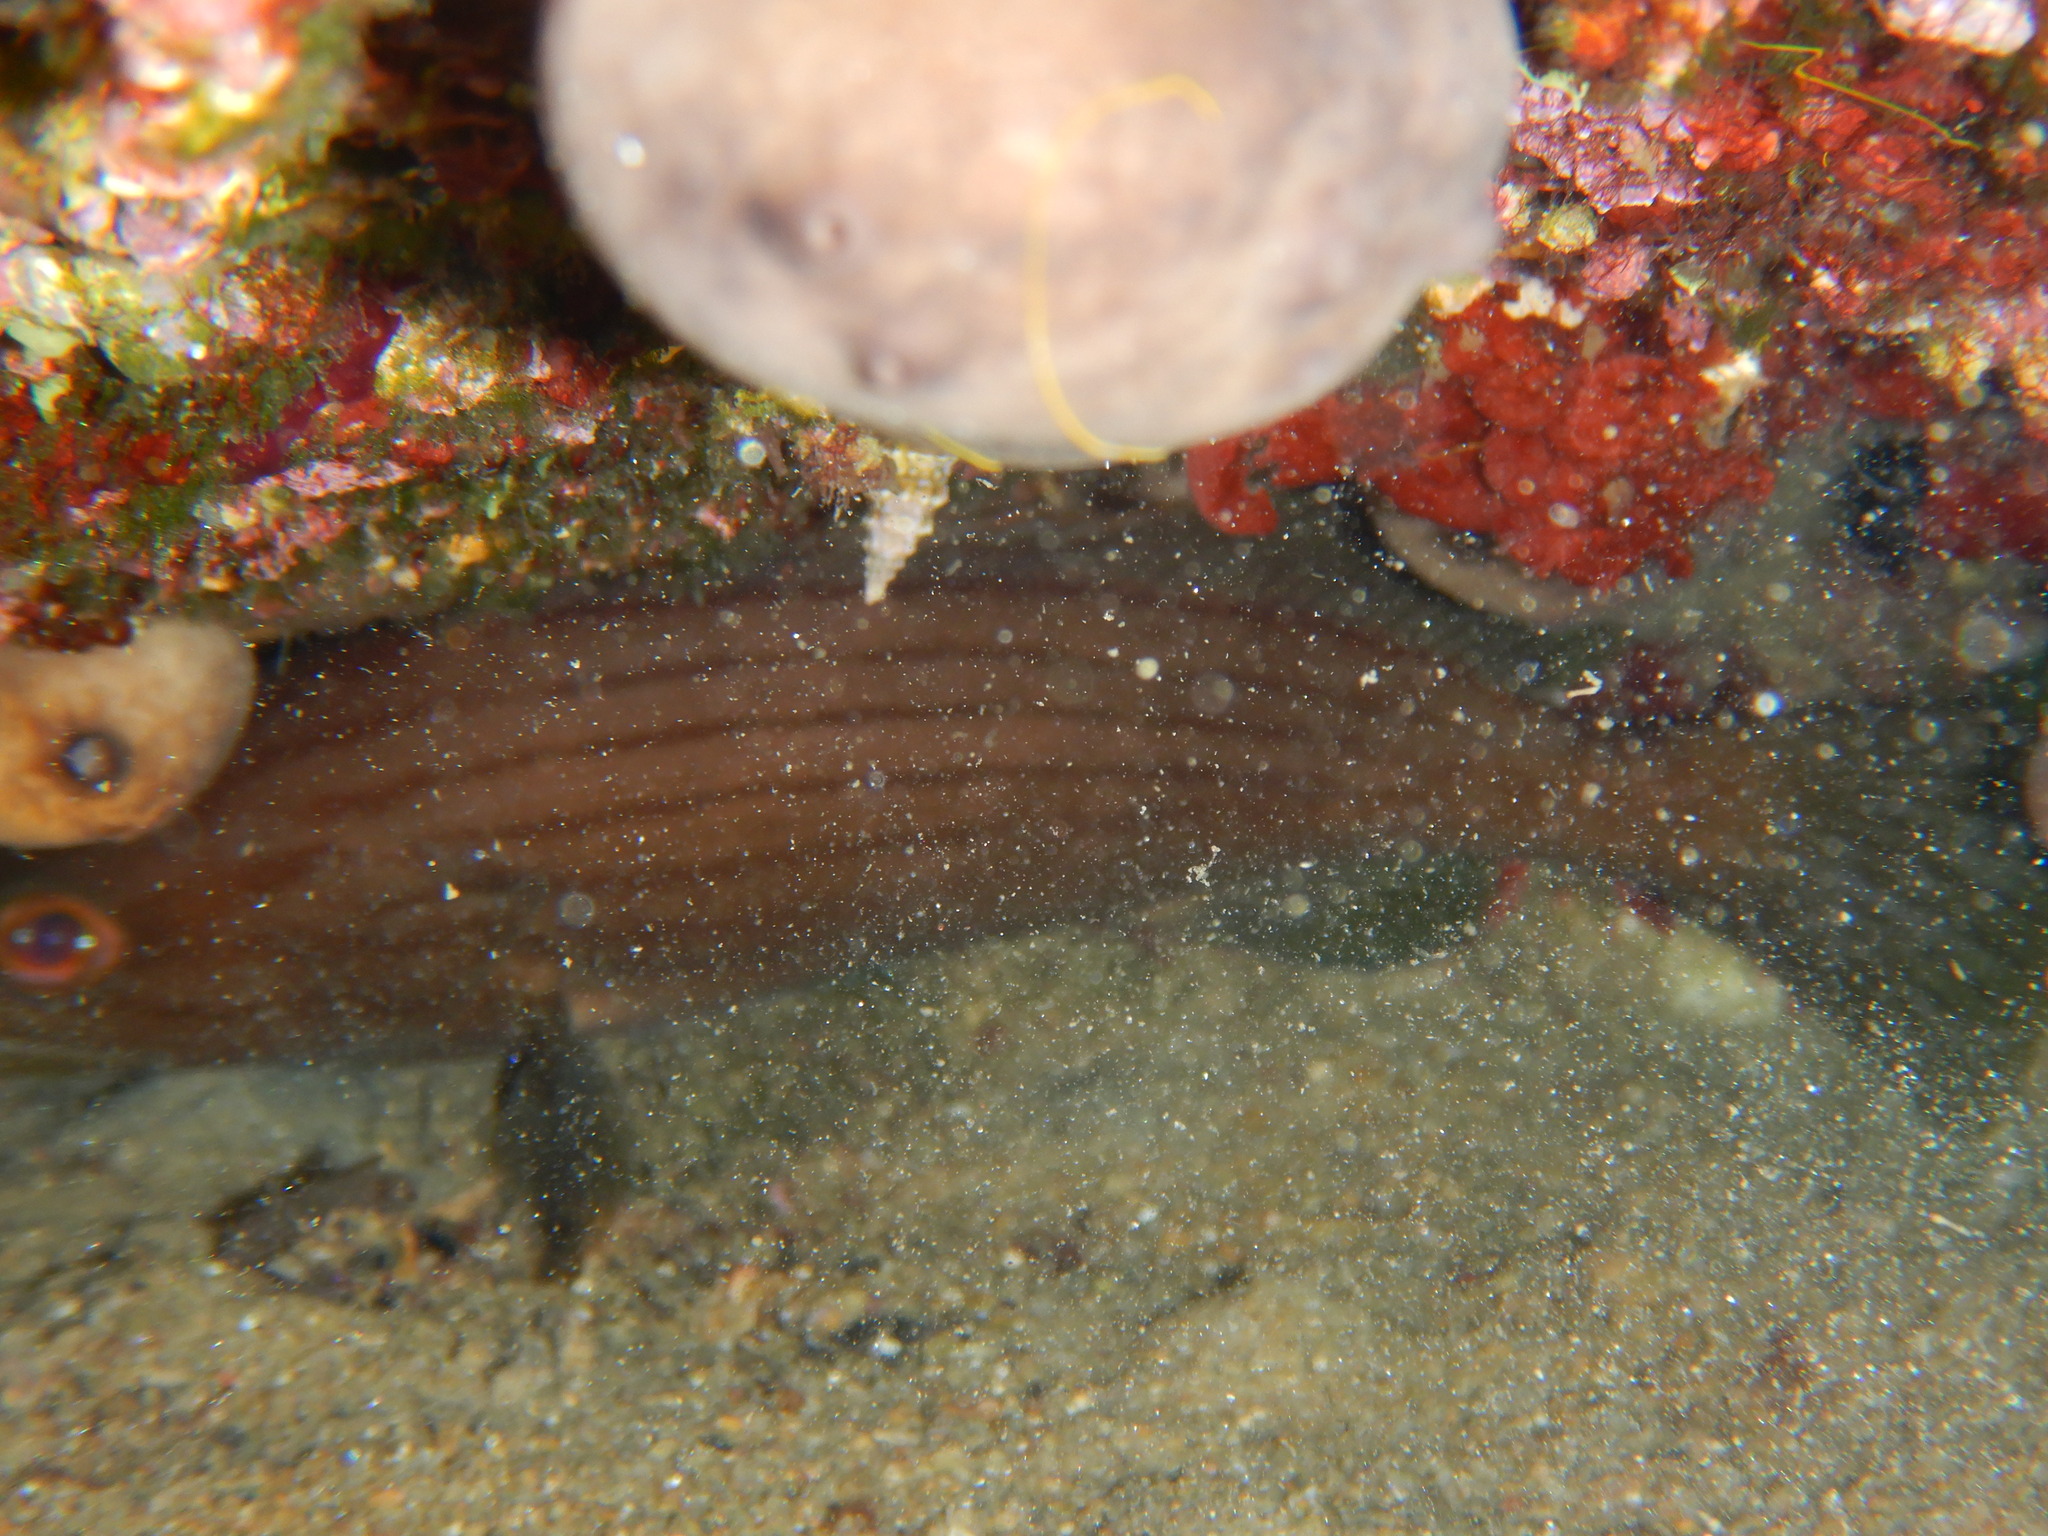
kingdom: Animalia
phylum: Chordata
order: Perciformes
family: Serranidae
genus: Epinephelus
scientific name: Epinephelus costae
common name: Goldblotch grouper
